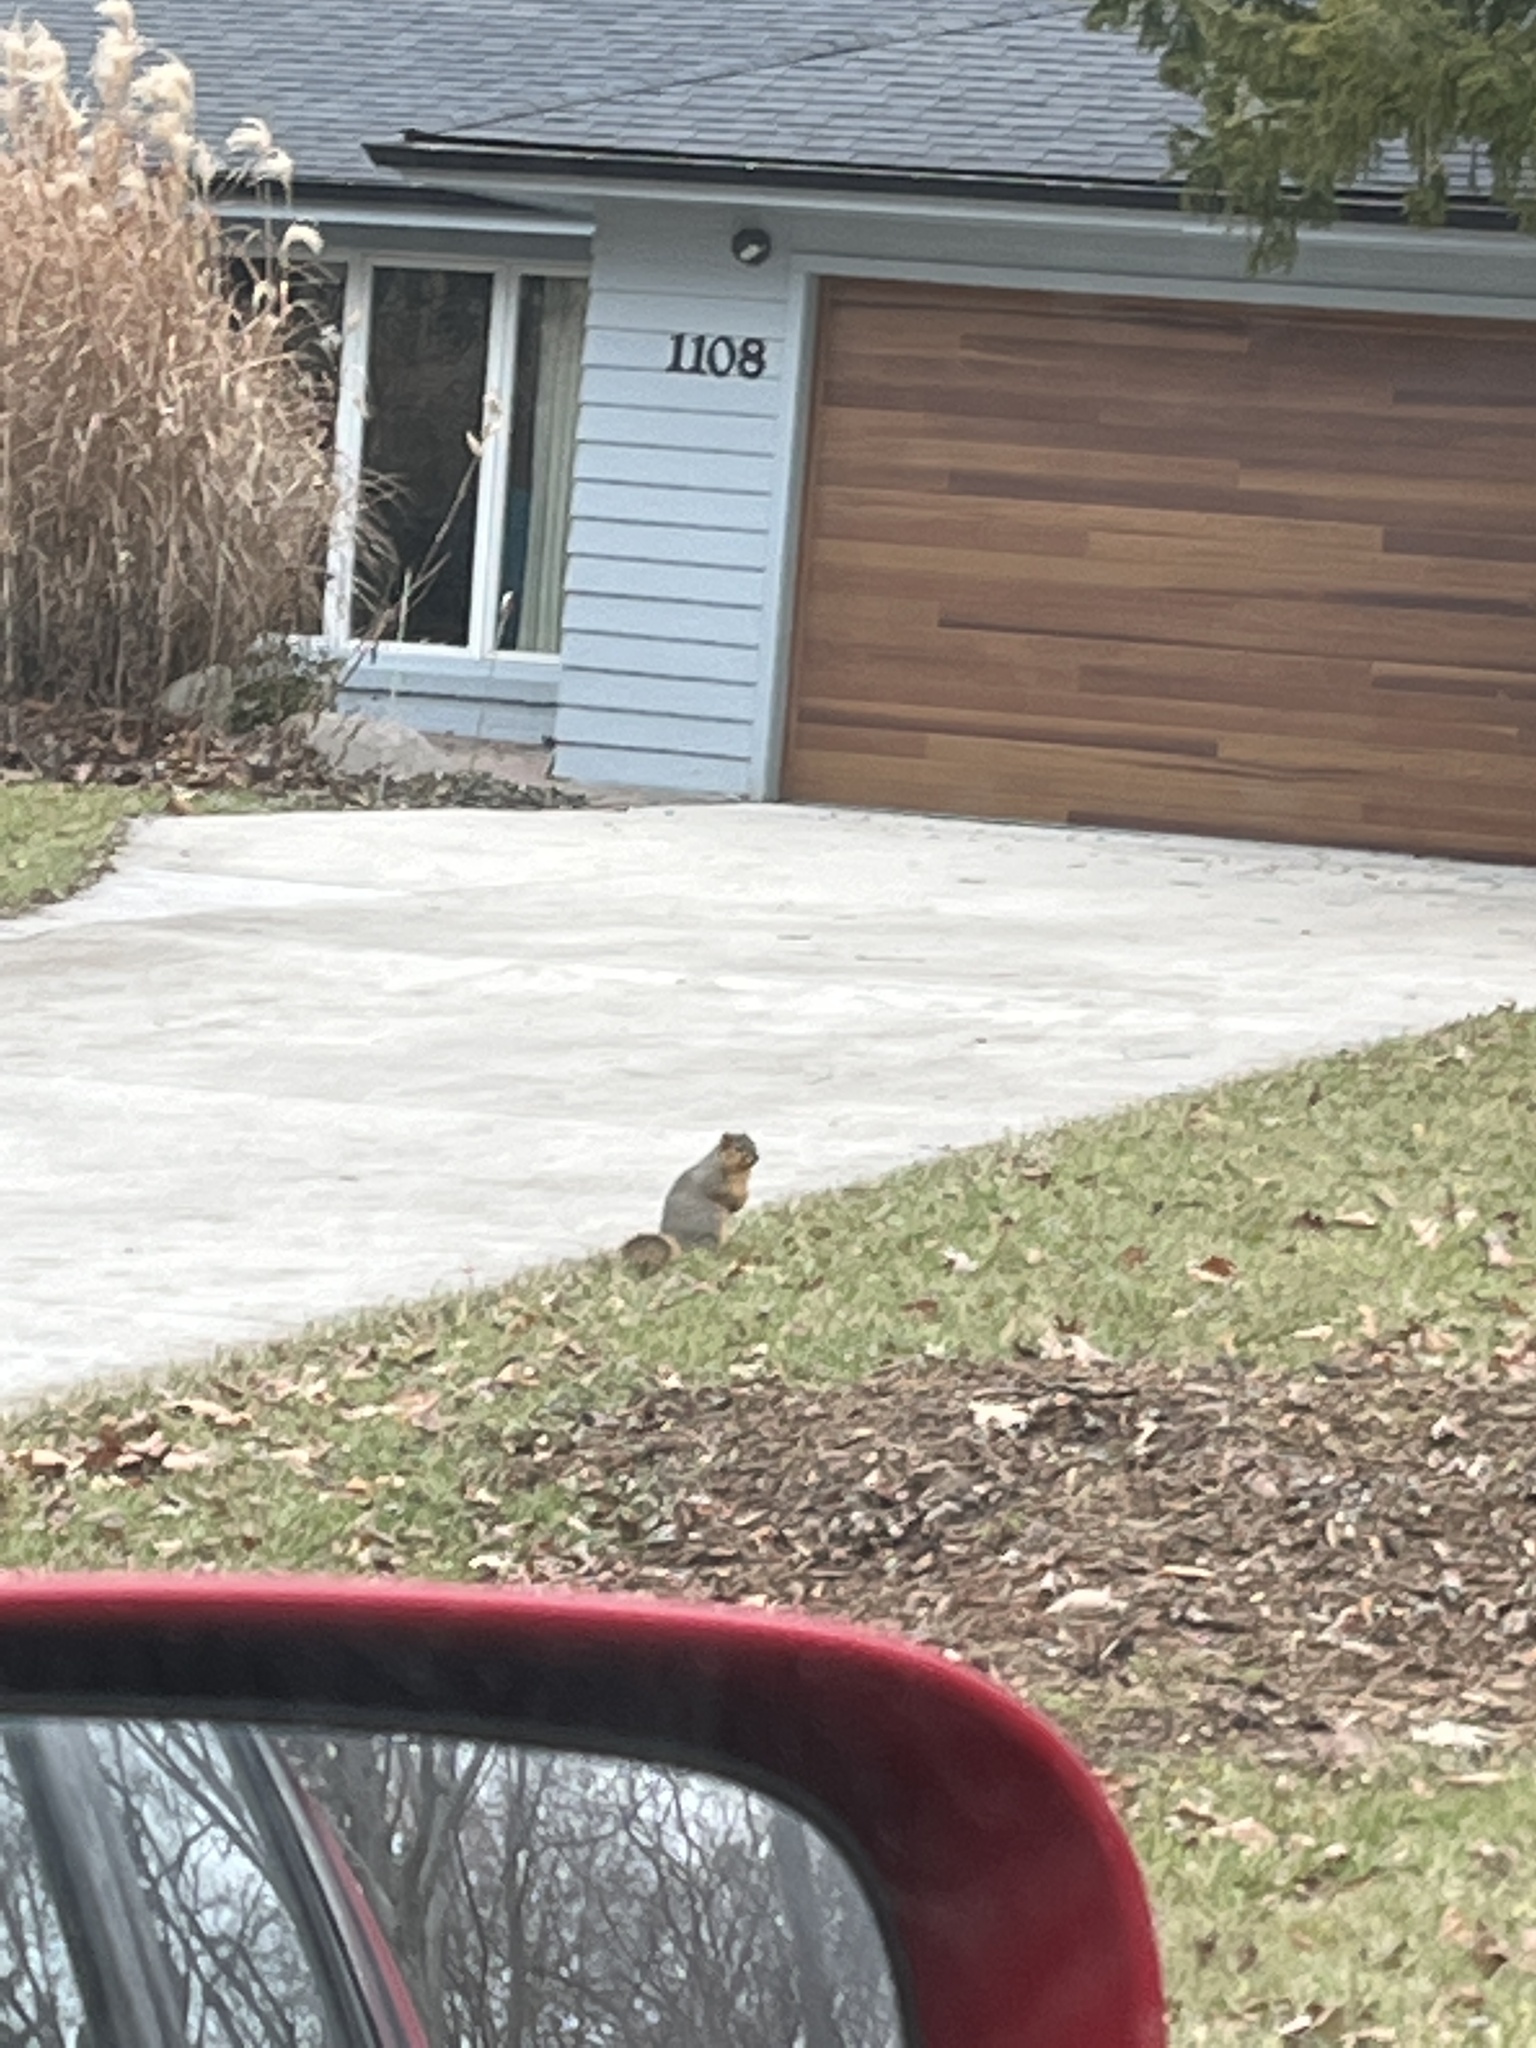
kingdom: Animalia
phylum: Chordata
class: Mammalia
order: Rodentia
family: Sciuridae
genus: Sciurus
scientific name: Sciurus niger
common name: Fox squirrel
